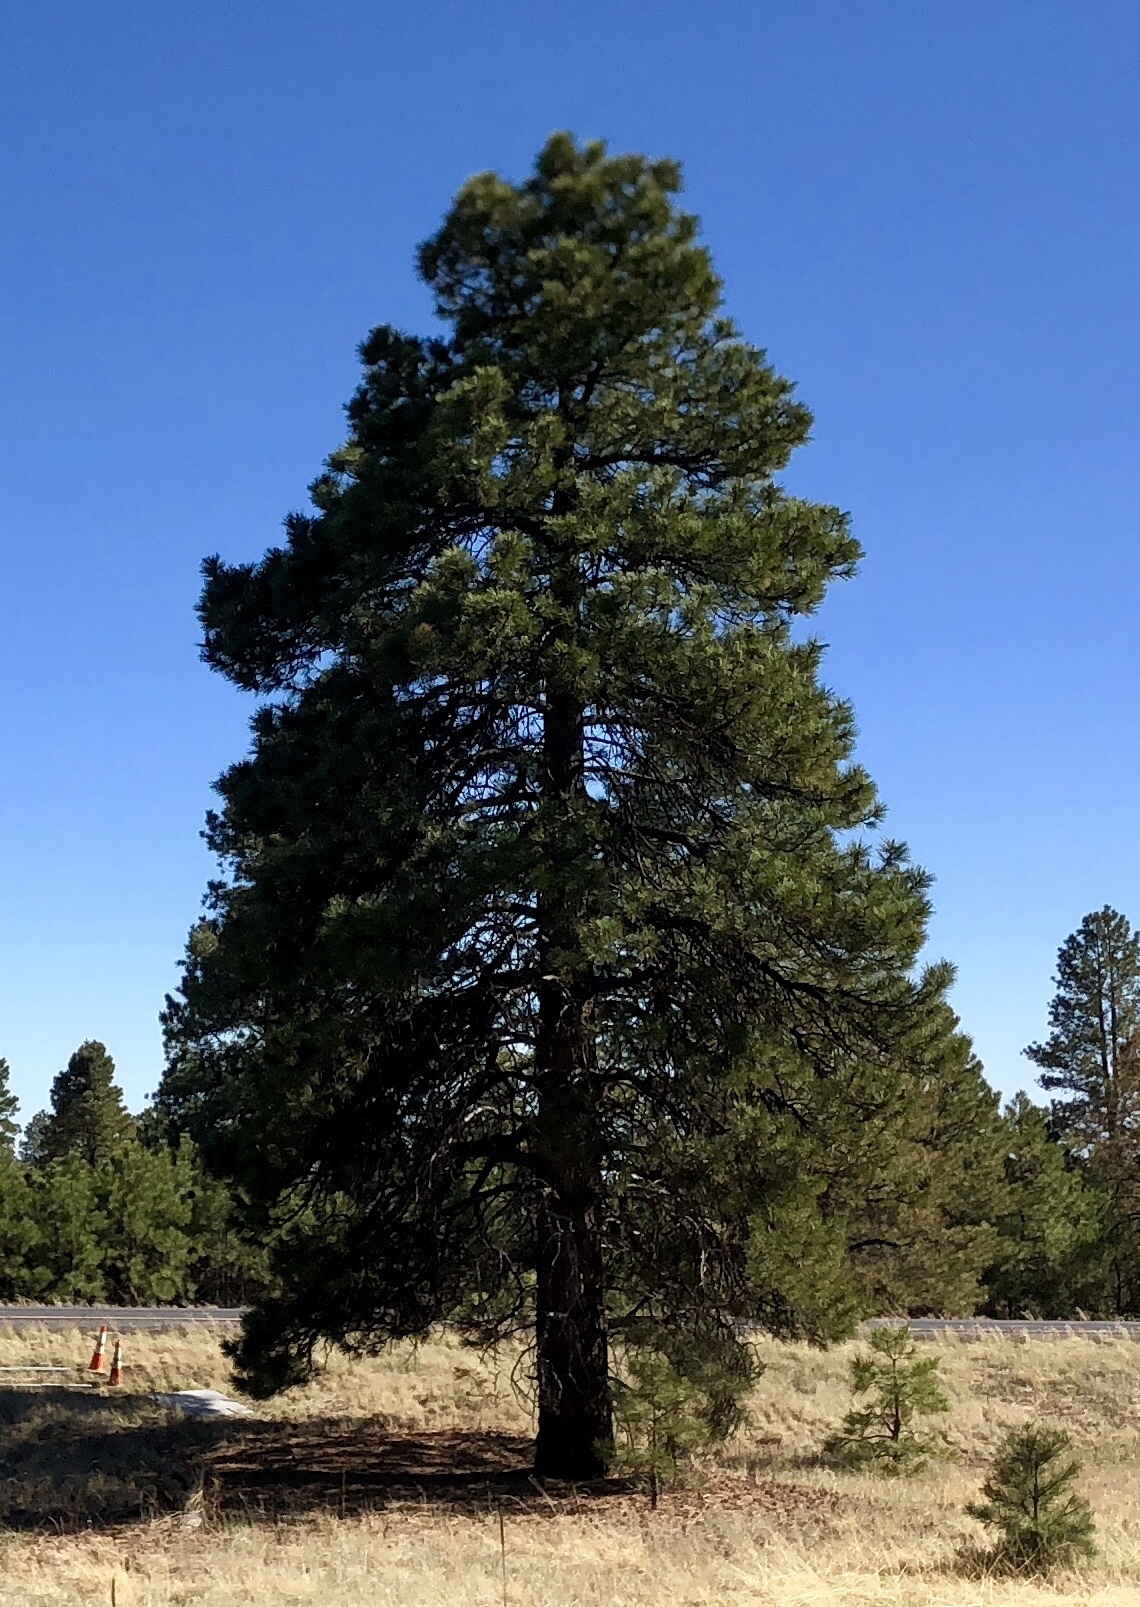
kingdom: Plantae
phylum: Tracheophyta
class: Pinopsida
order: Pinales
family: Pinaceae
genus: Pinus
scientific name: Pinus ponderosa
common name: Western yellow-pine
